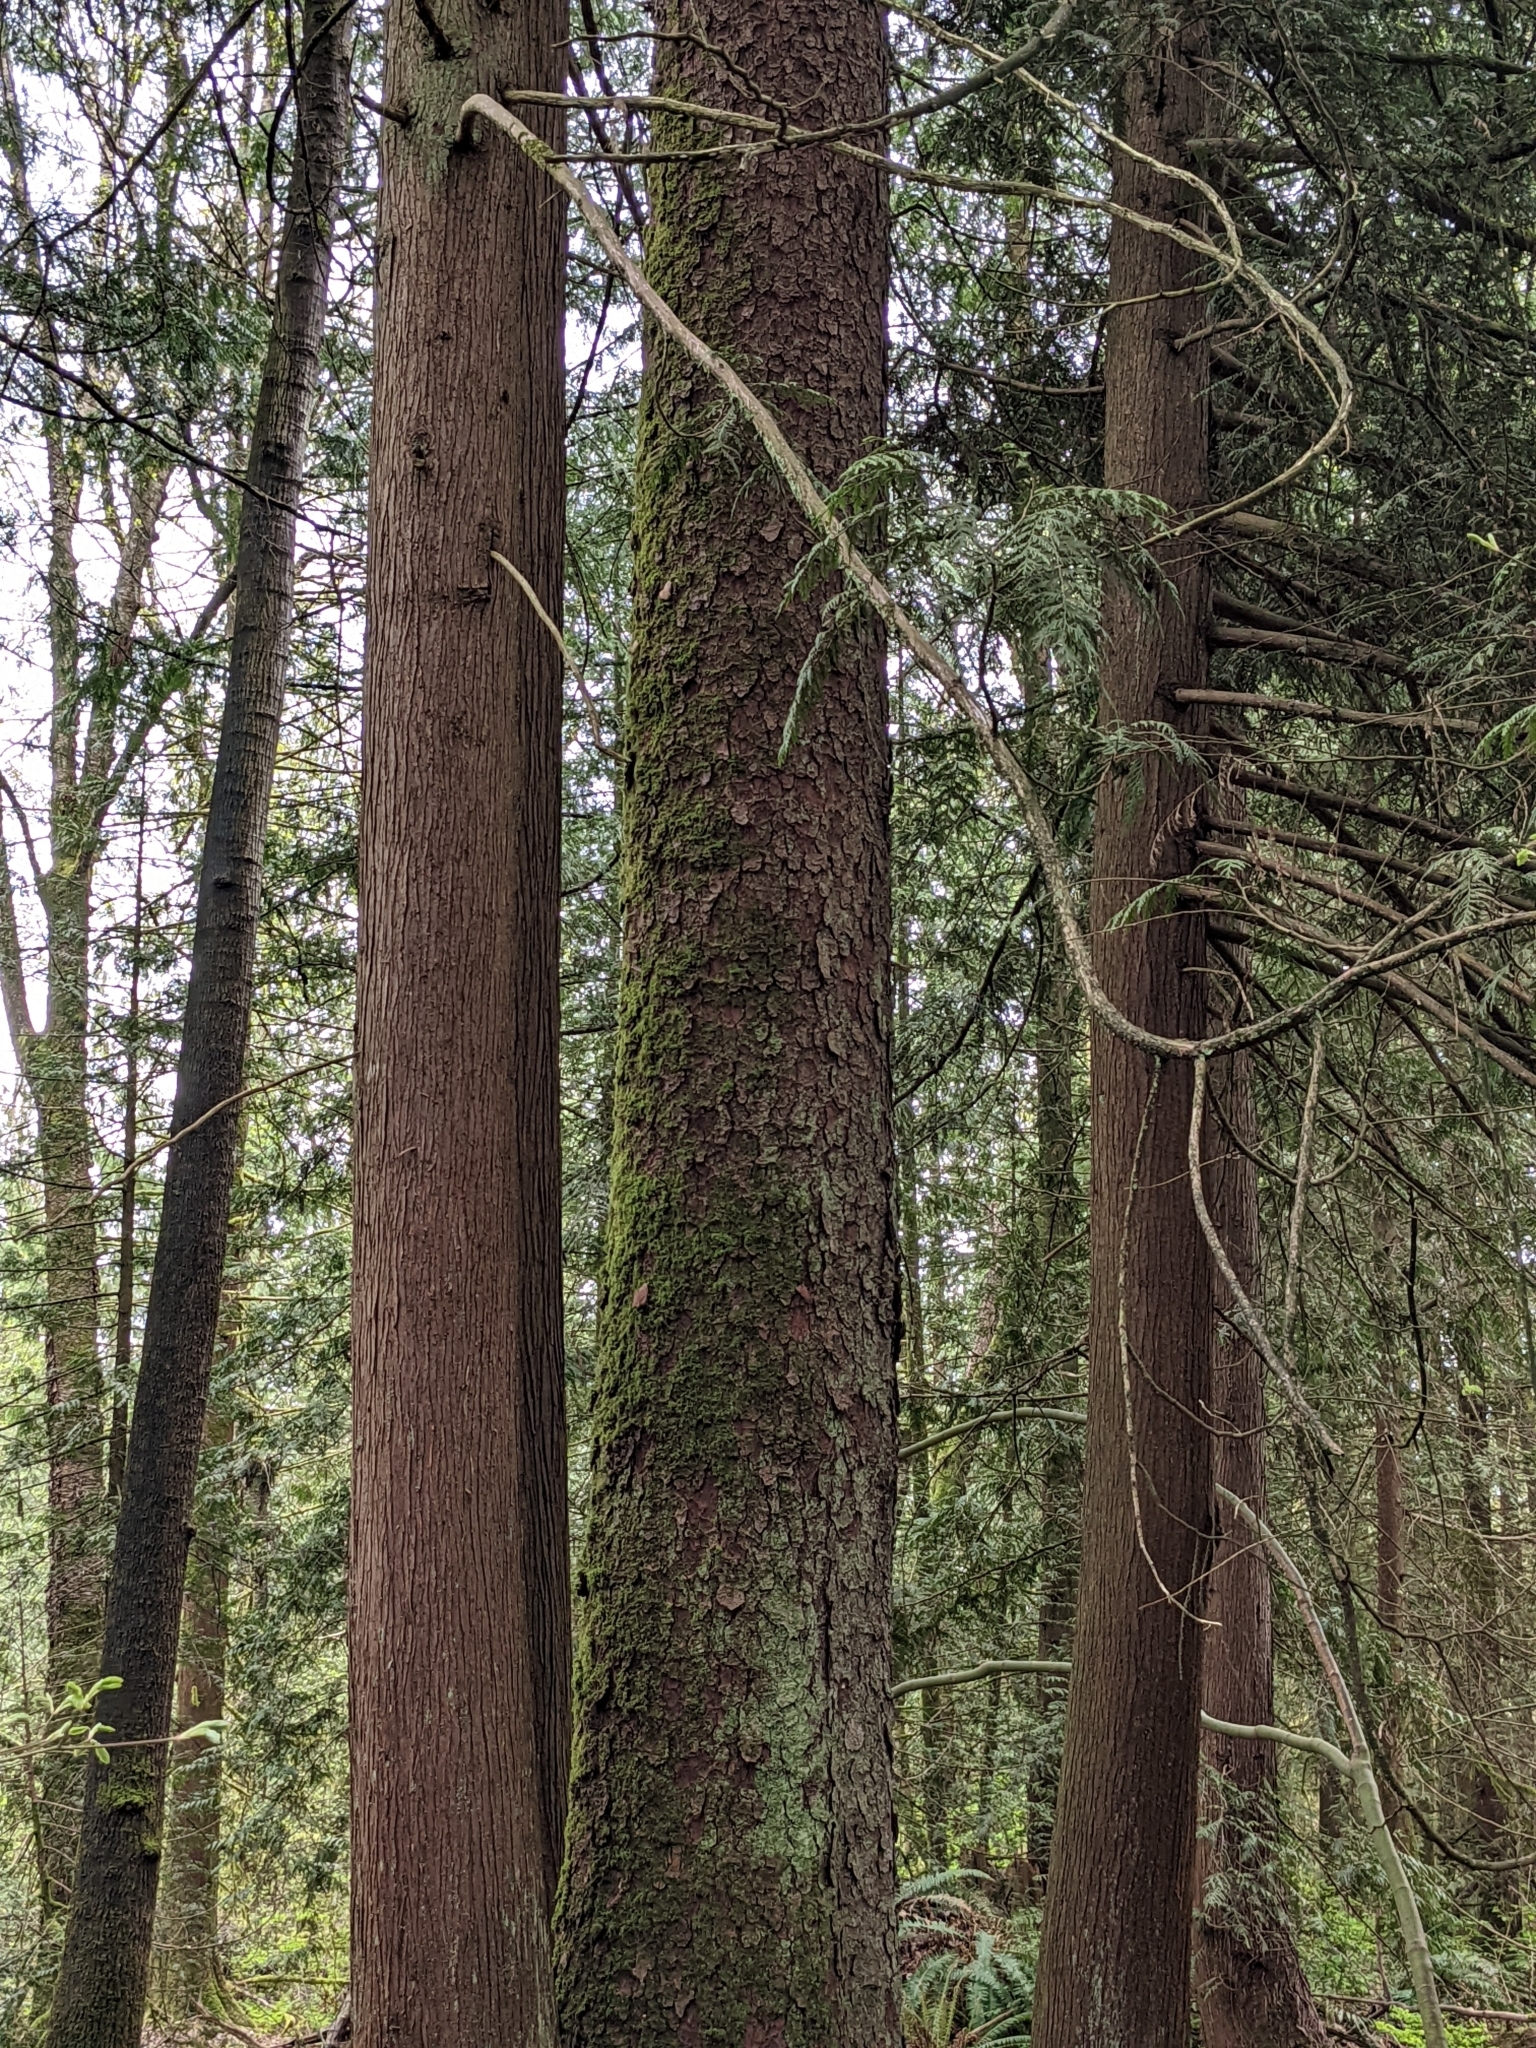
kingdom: Plantae
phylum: Tracheophyta
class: Pinopsida
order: Pinales
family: Pinaceae
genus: Picea
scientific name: Picea sitchensis
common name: Sitka spruce
